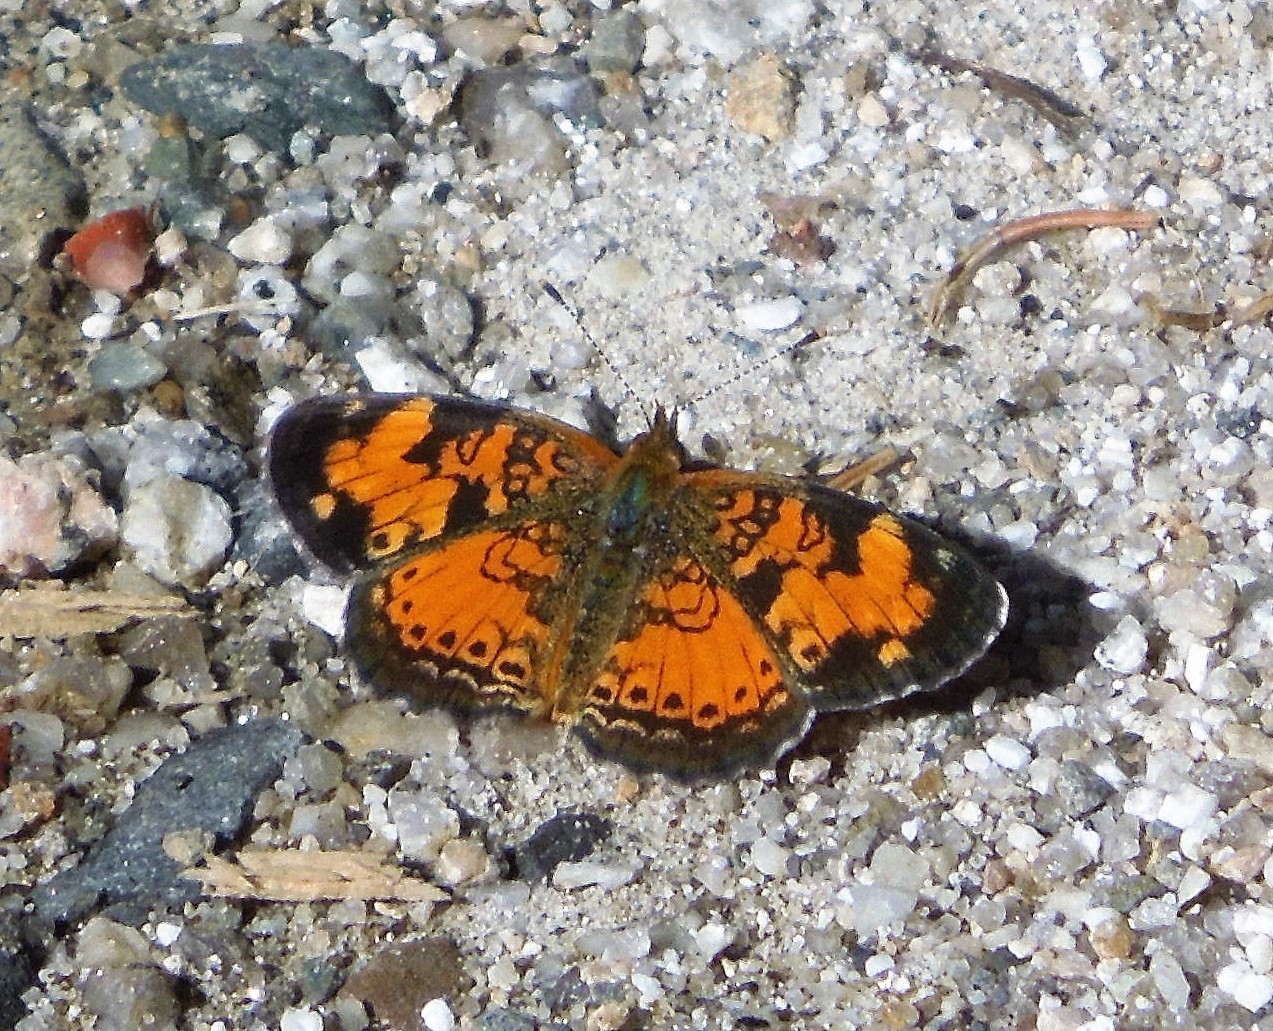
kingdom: Animalia
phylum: Arthropoda
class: Insecta
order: Lepidoptera
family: Nymphalidae
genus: Phyciodes
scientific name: Phyciodes tharos
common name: Pearl crescent
